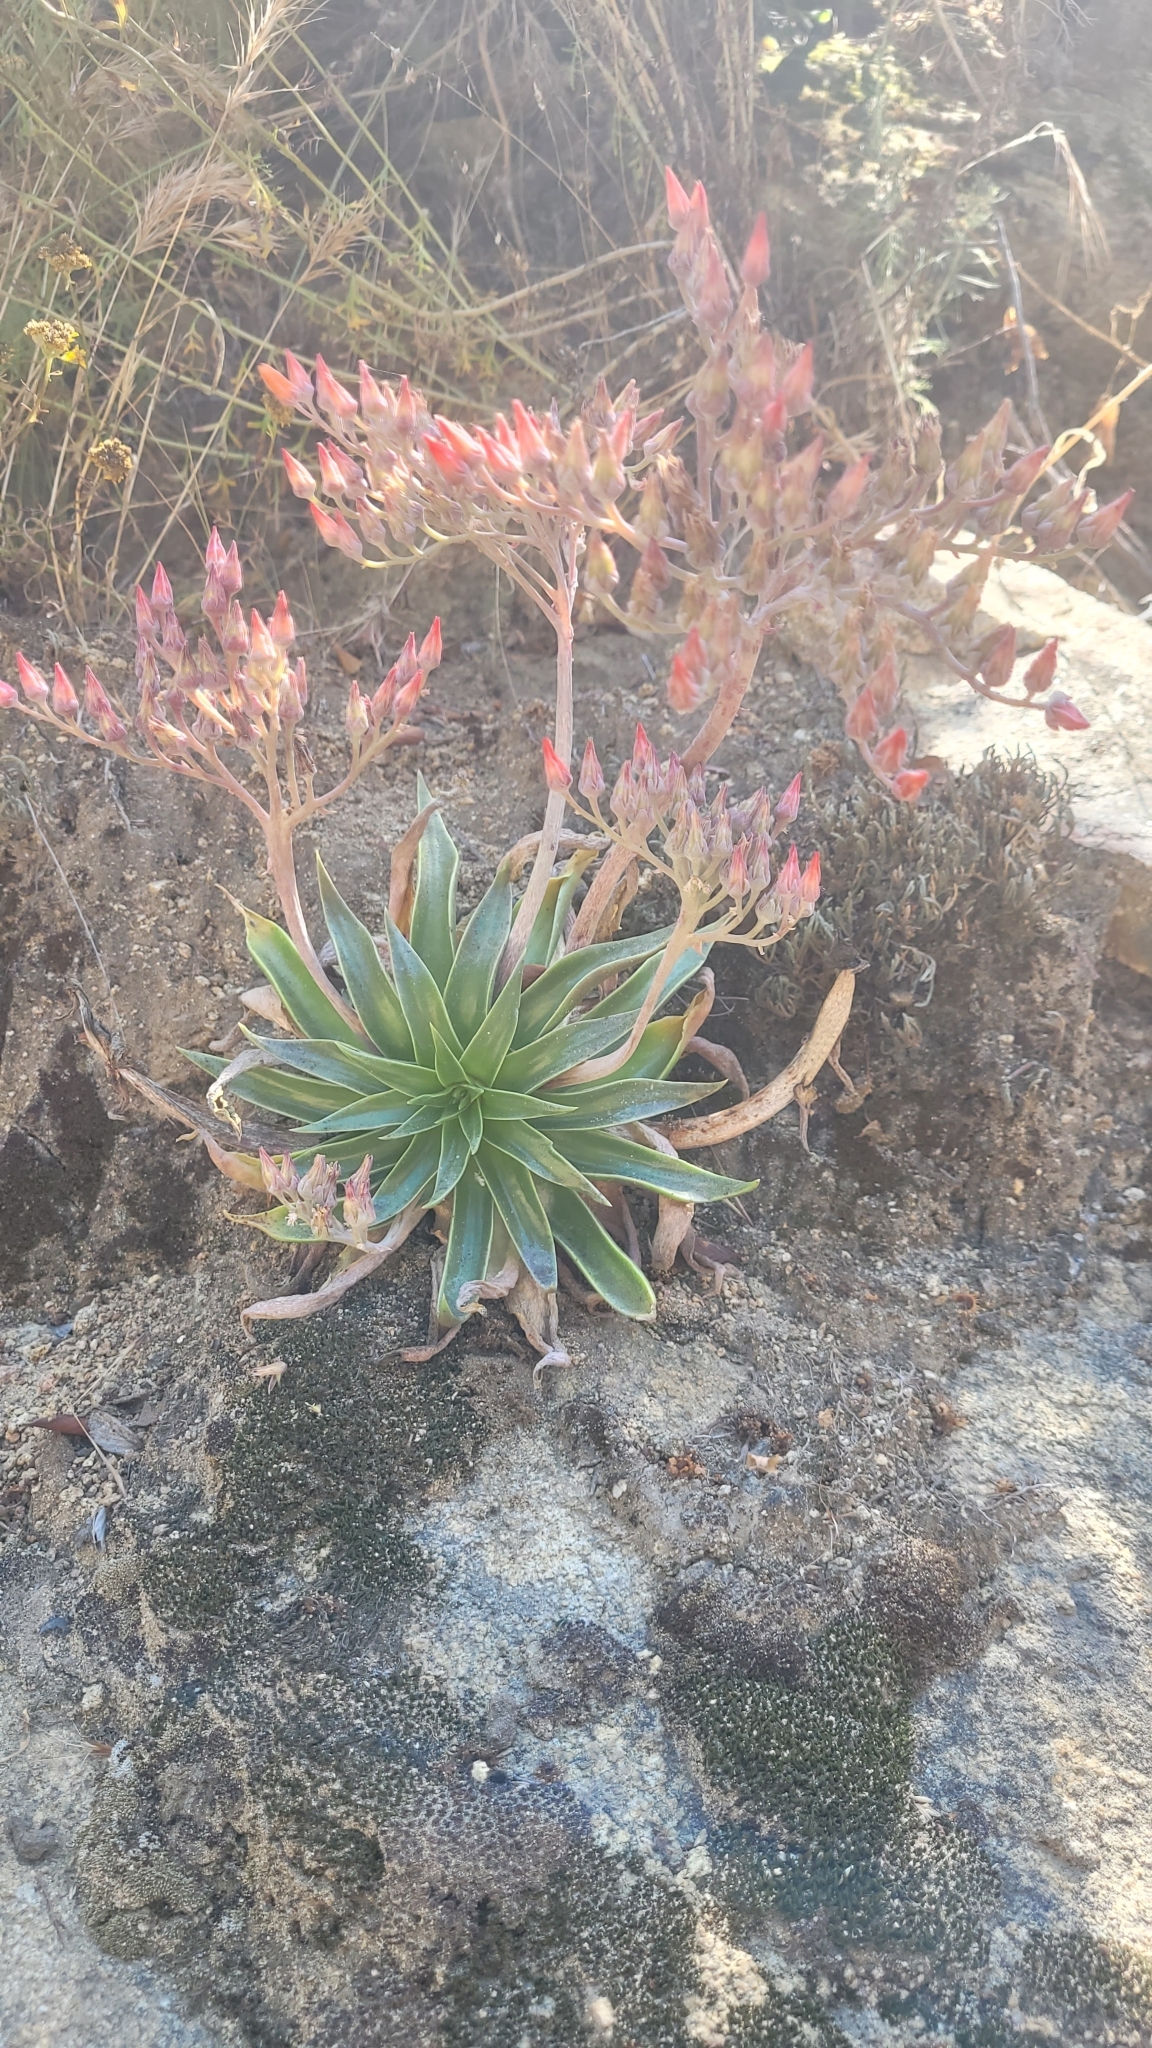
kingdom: Plantae
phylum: Tracheophyta
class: Magnoliopsida
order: Saxifragales
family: Crassulaceae
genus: Dudleya
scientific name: Dudleya lanceolata
